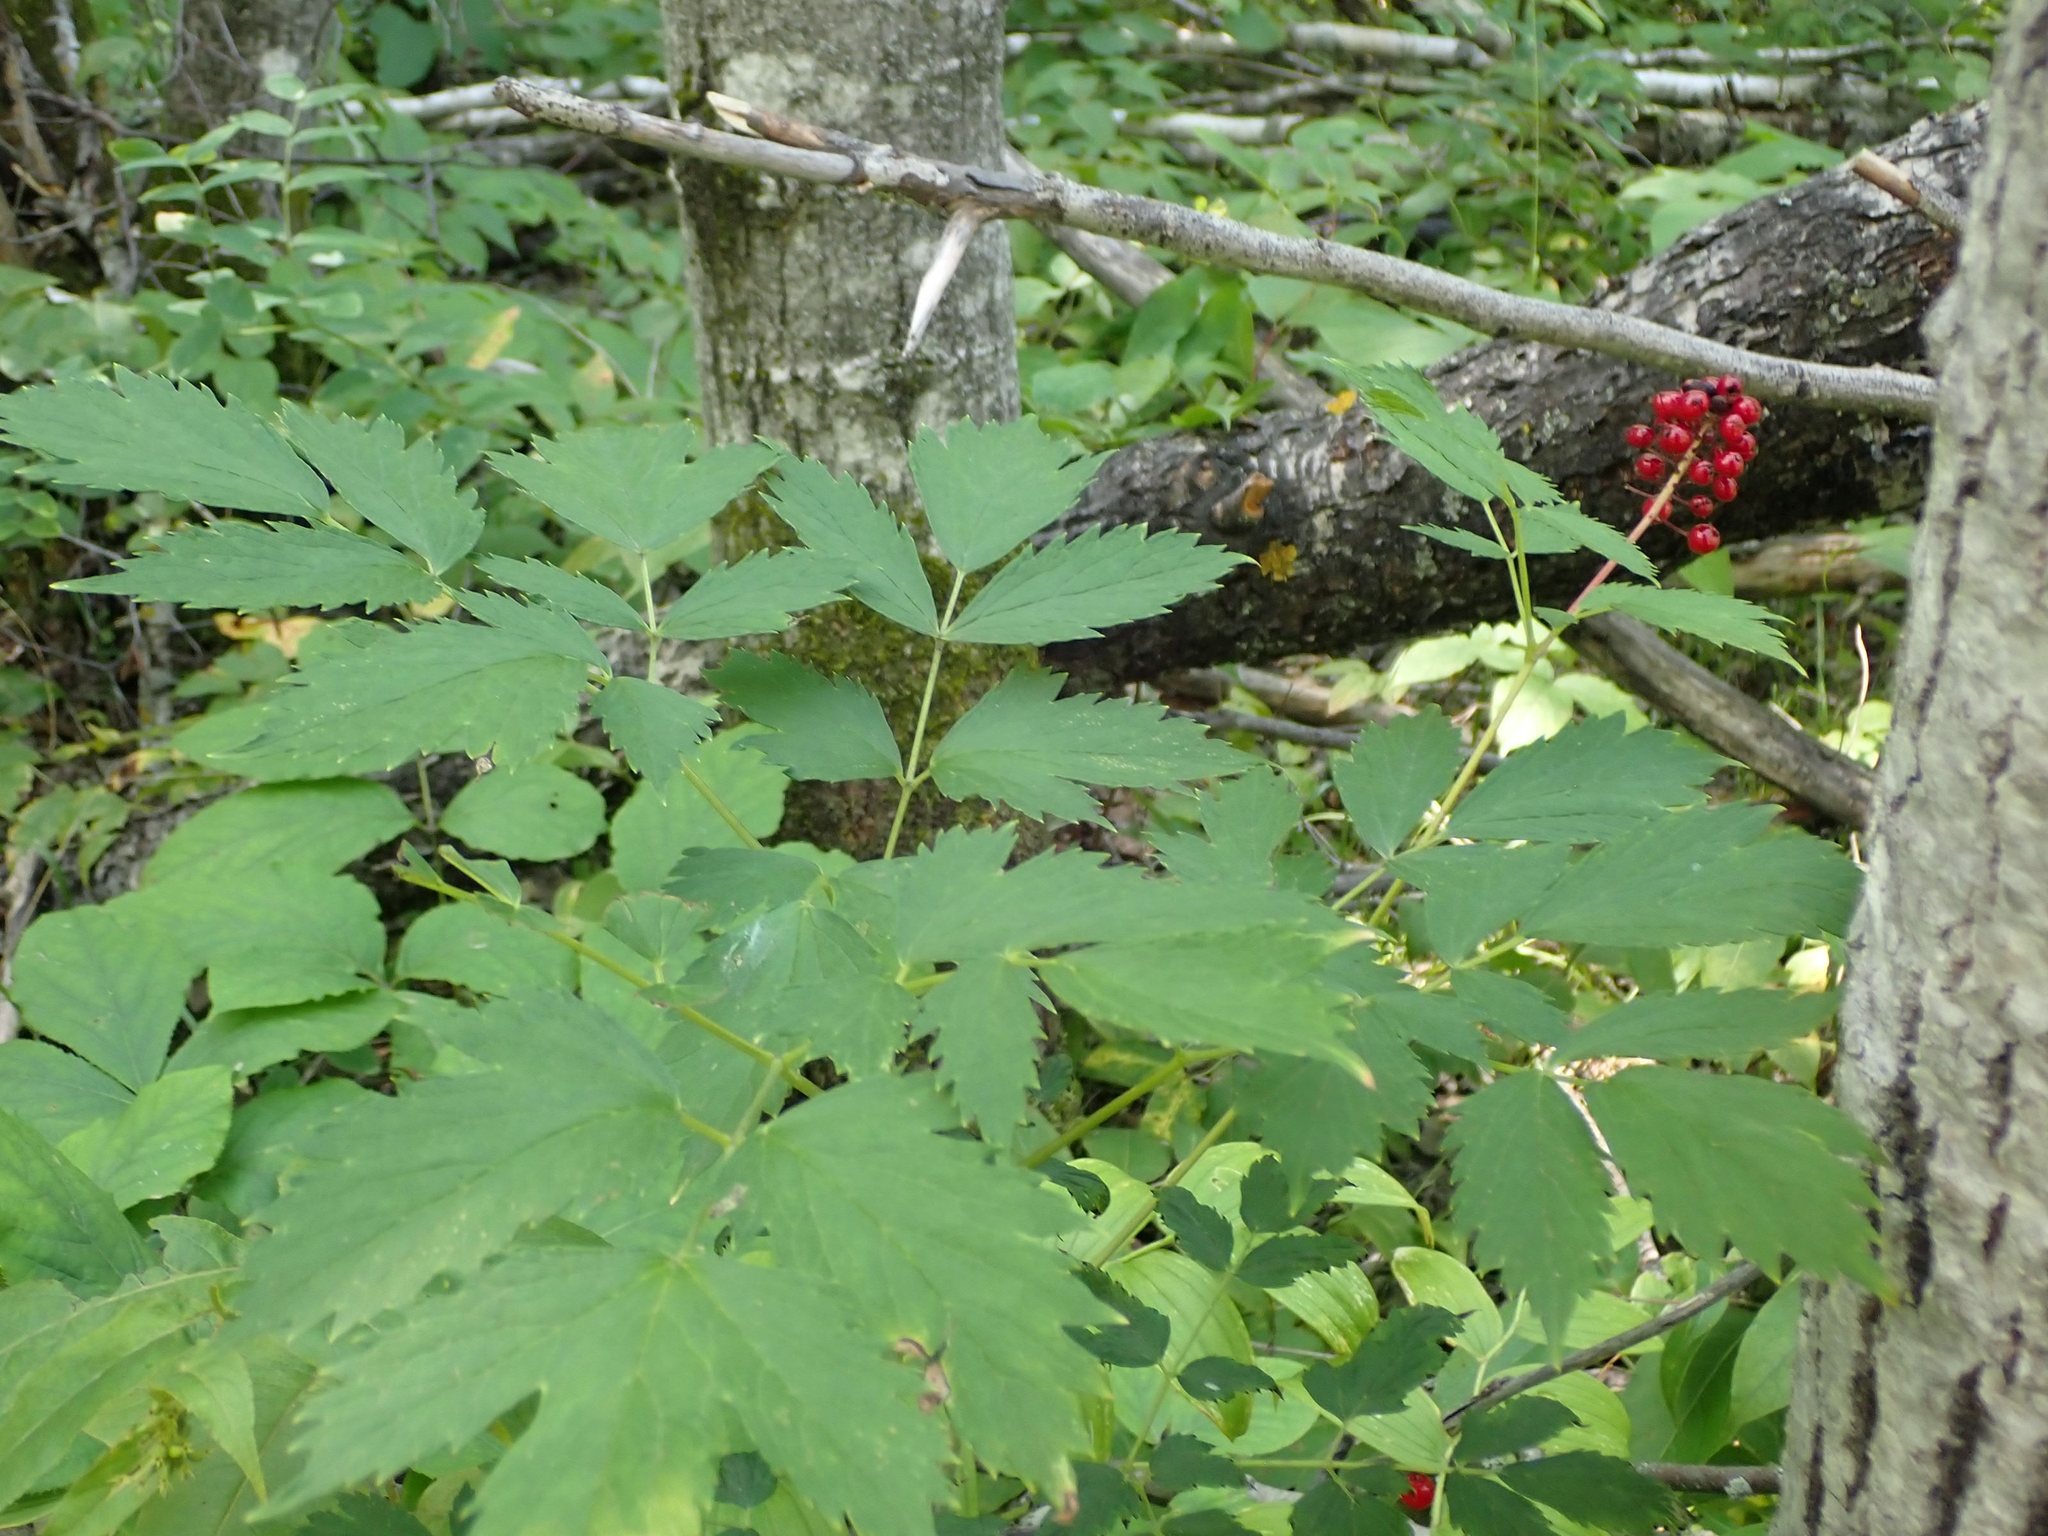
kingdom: Plantae
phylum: Tracheophyta
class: Magnoliopsida
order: Ranunculales
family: Ranunculaceae
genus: Actaea
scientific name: Actaea rubra
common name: Red baneberry
